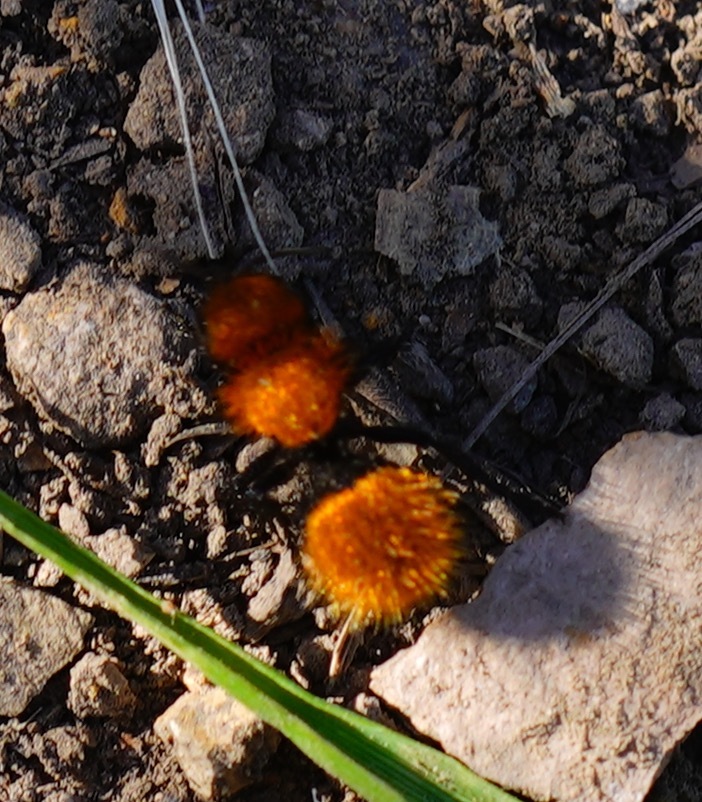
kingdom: Animalia
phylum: Arthropoda
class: Insecta
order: Hymenoptera
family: Mutillidae
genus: Dasymutilla
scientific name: Dasymutilla
